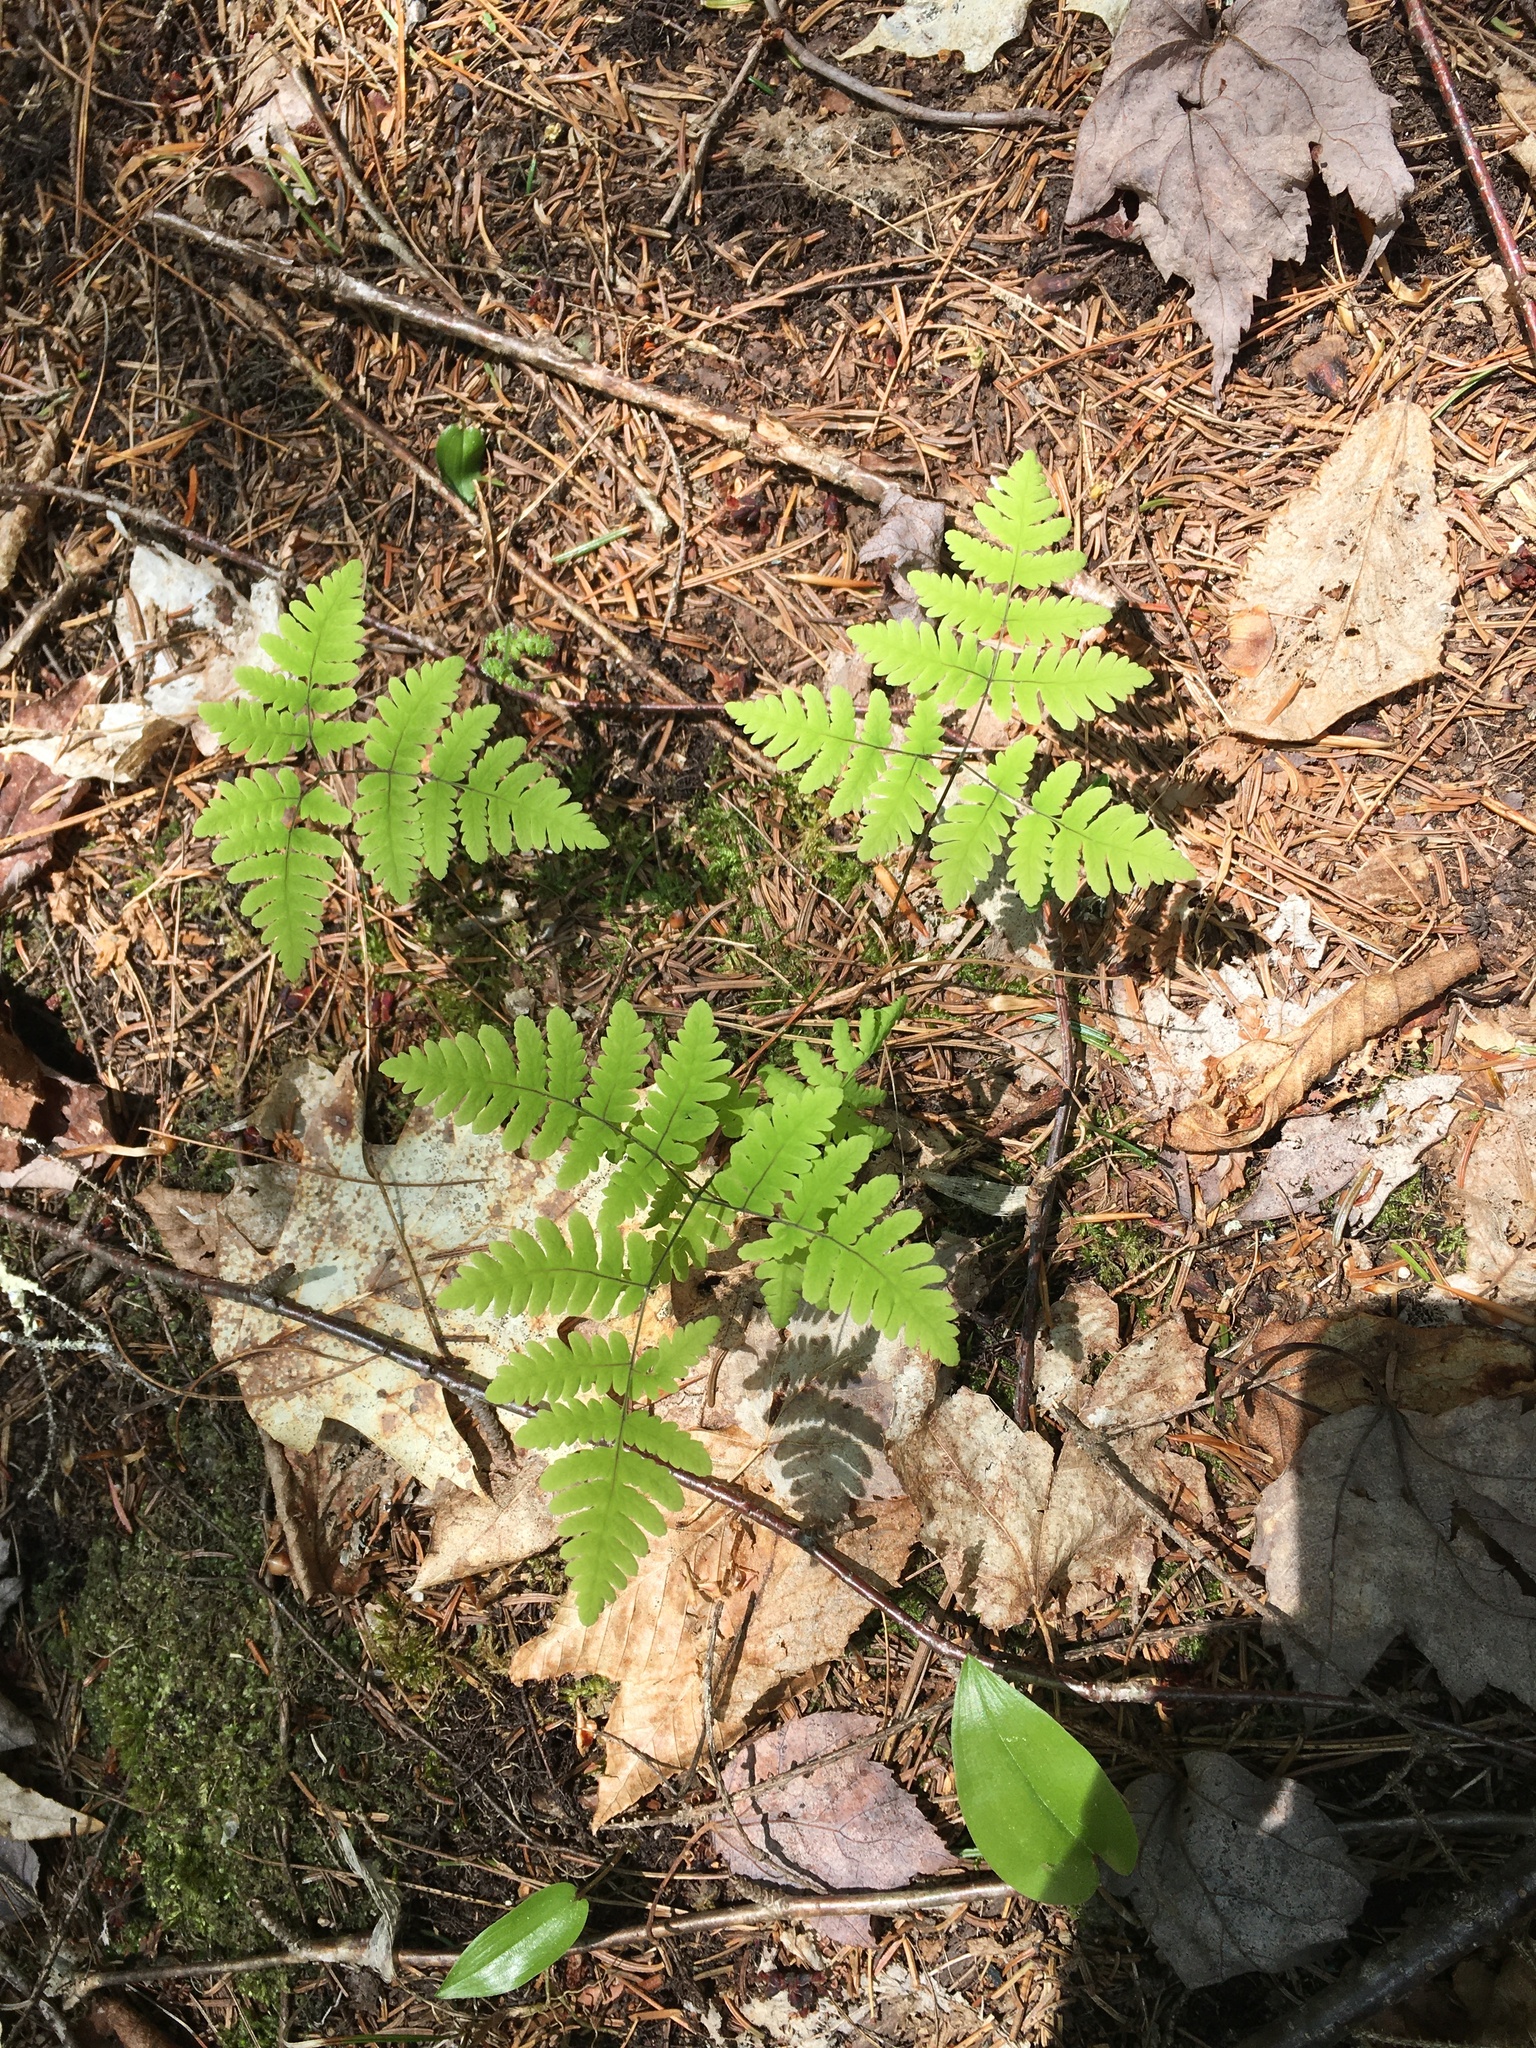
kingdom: Plantae
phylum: Tracheophyta
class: Polypodiopsida
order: Polypodiales
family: Cystopteridaceae
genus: Gymnocarpium
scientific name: Gymnocarpium dryopteris
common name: Oak fern
